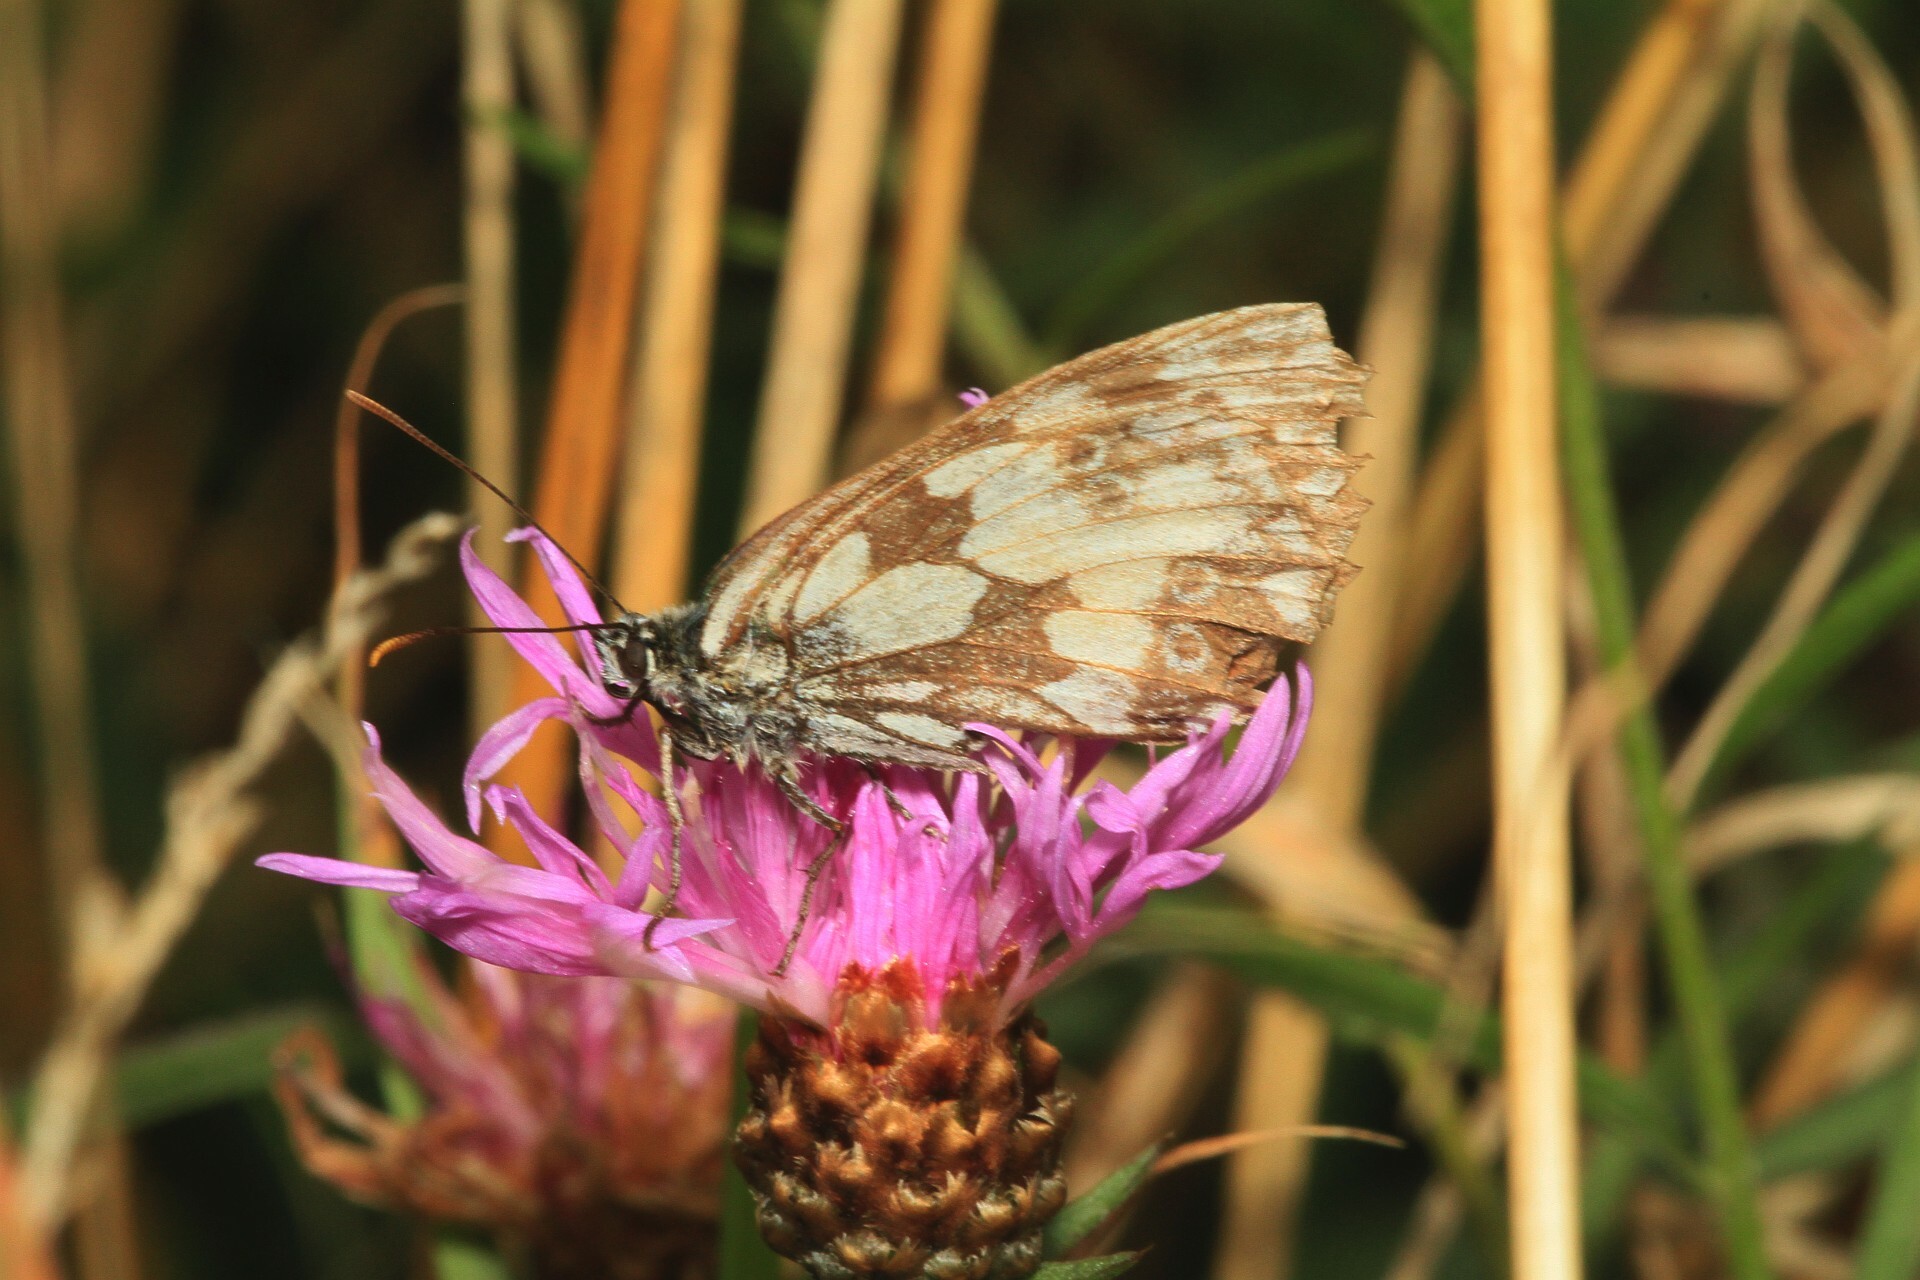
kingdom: Animalia
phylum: Arthropoda
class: Insecta
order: Lepidoptera
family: Nymphalidae
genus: Melanargia
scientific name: Melanargia galathea
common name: Marbled white
